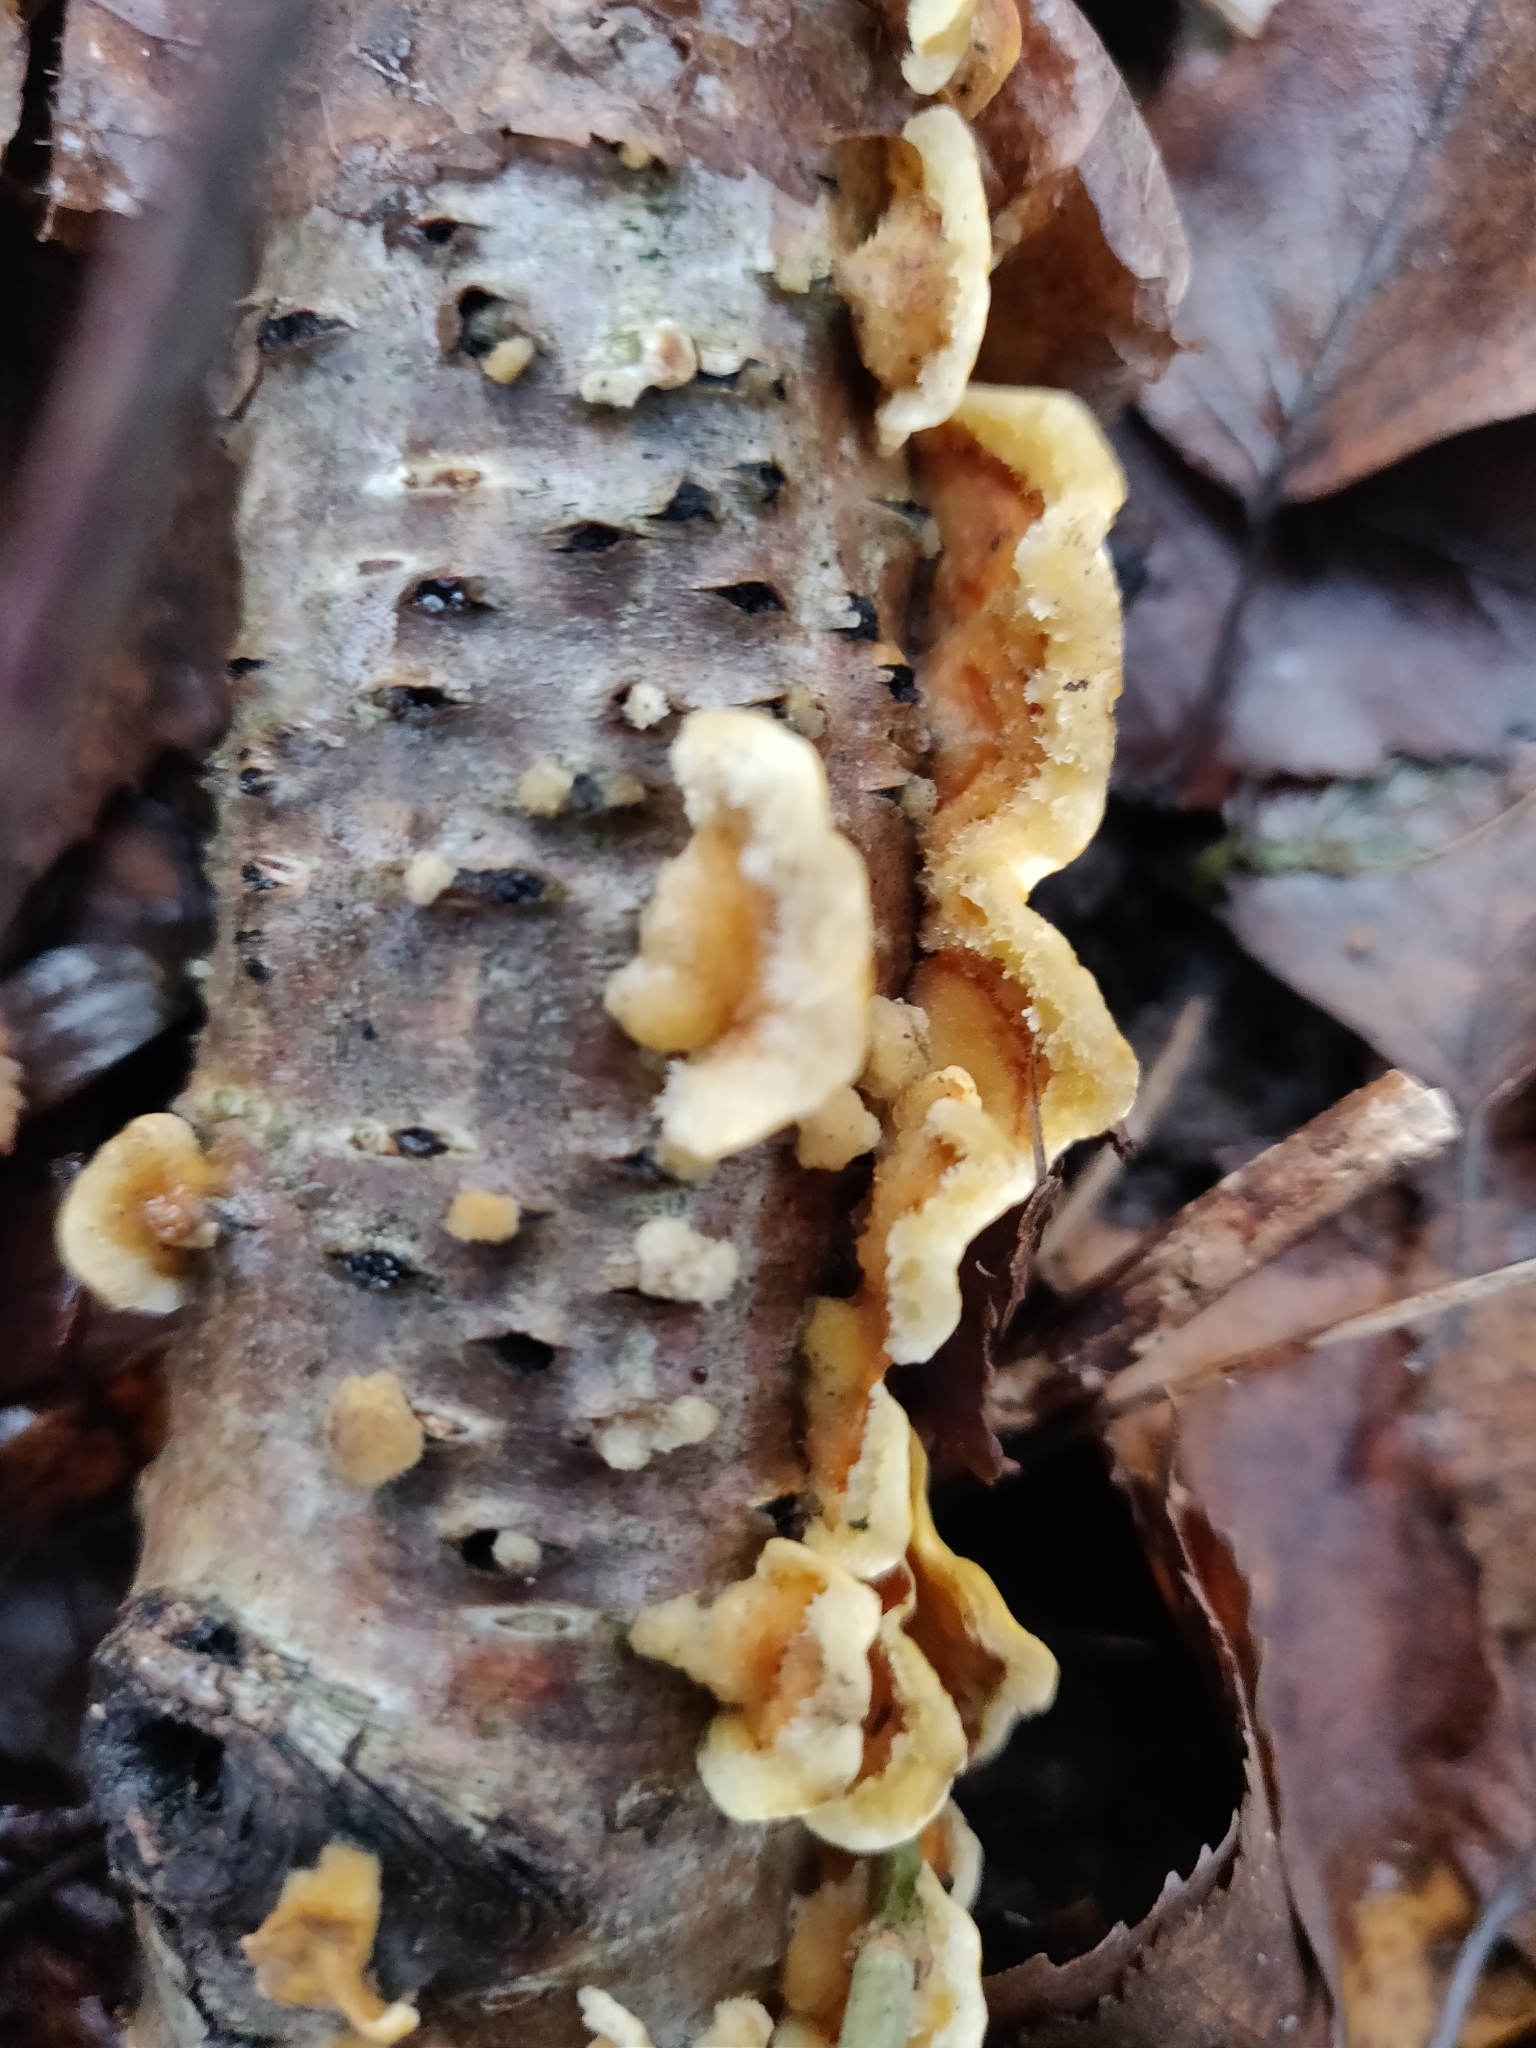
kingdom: Fungi
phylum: Basidiomycota
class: Agaricomycetes
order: Russulales
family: Stereaceae
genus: Stereum
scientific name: Stereum hirsutum
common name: Hairy curtain crust
